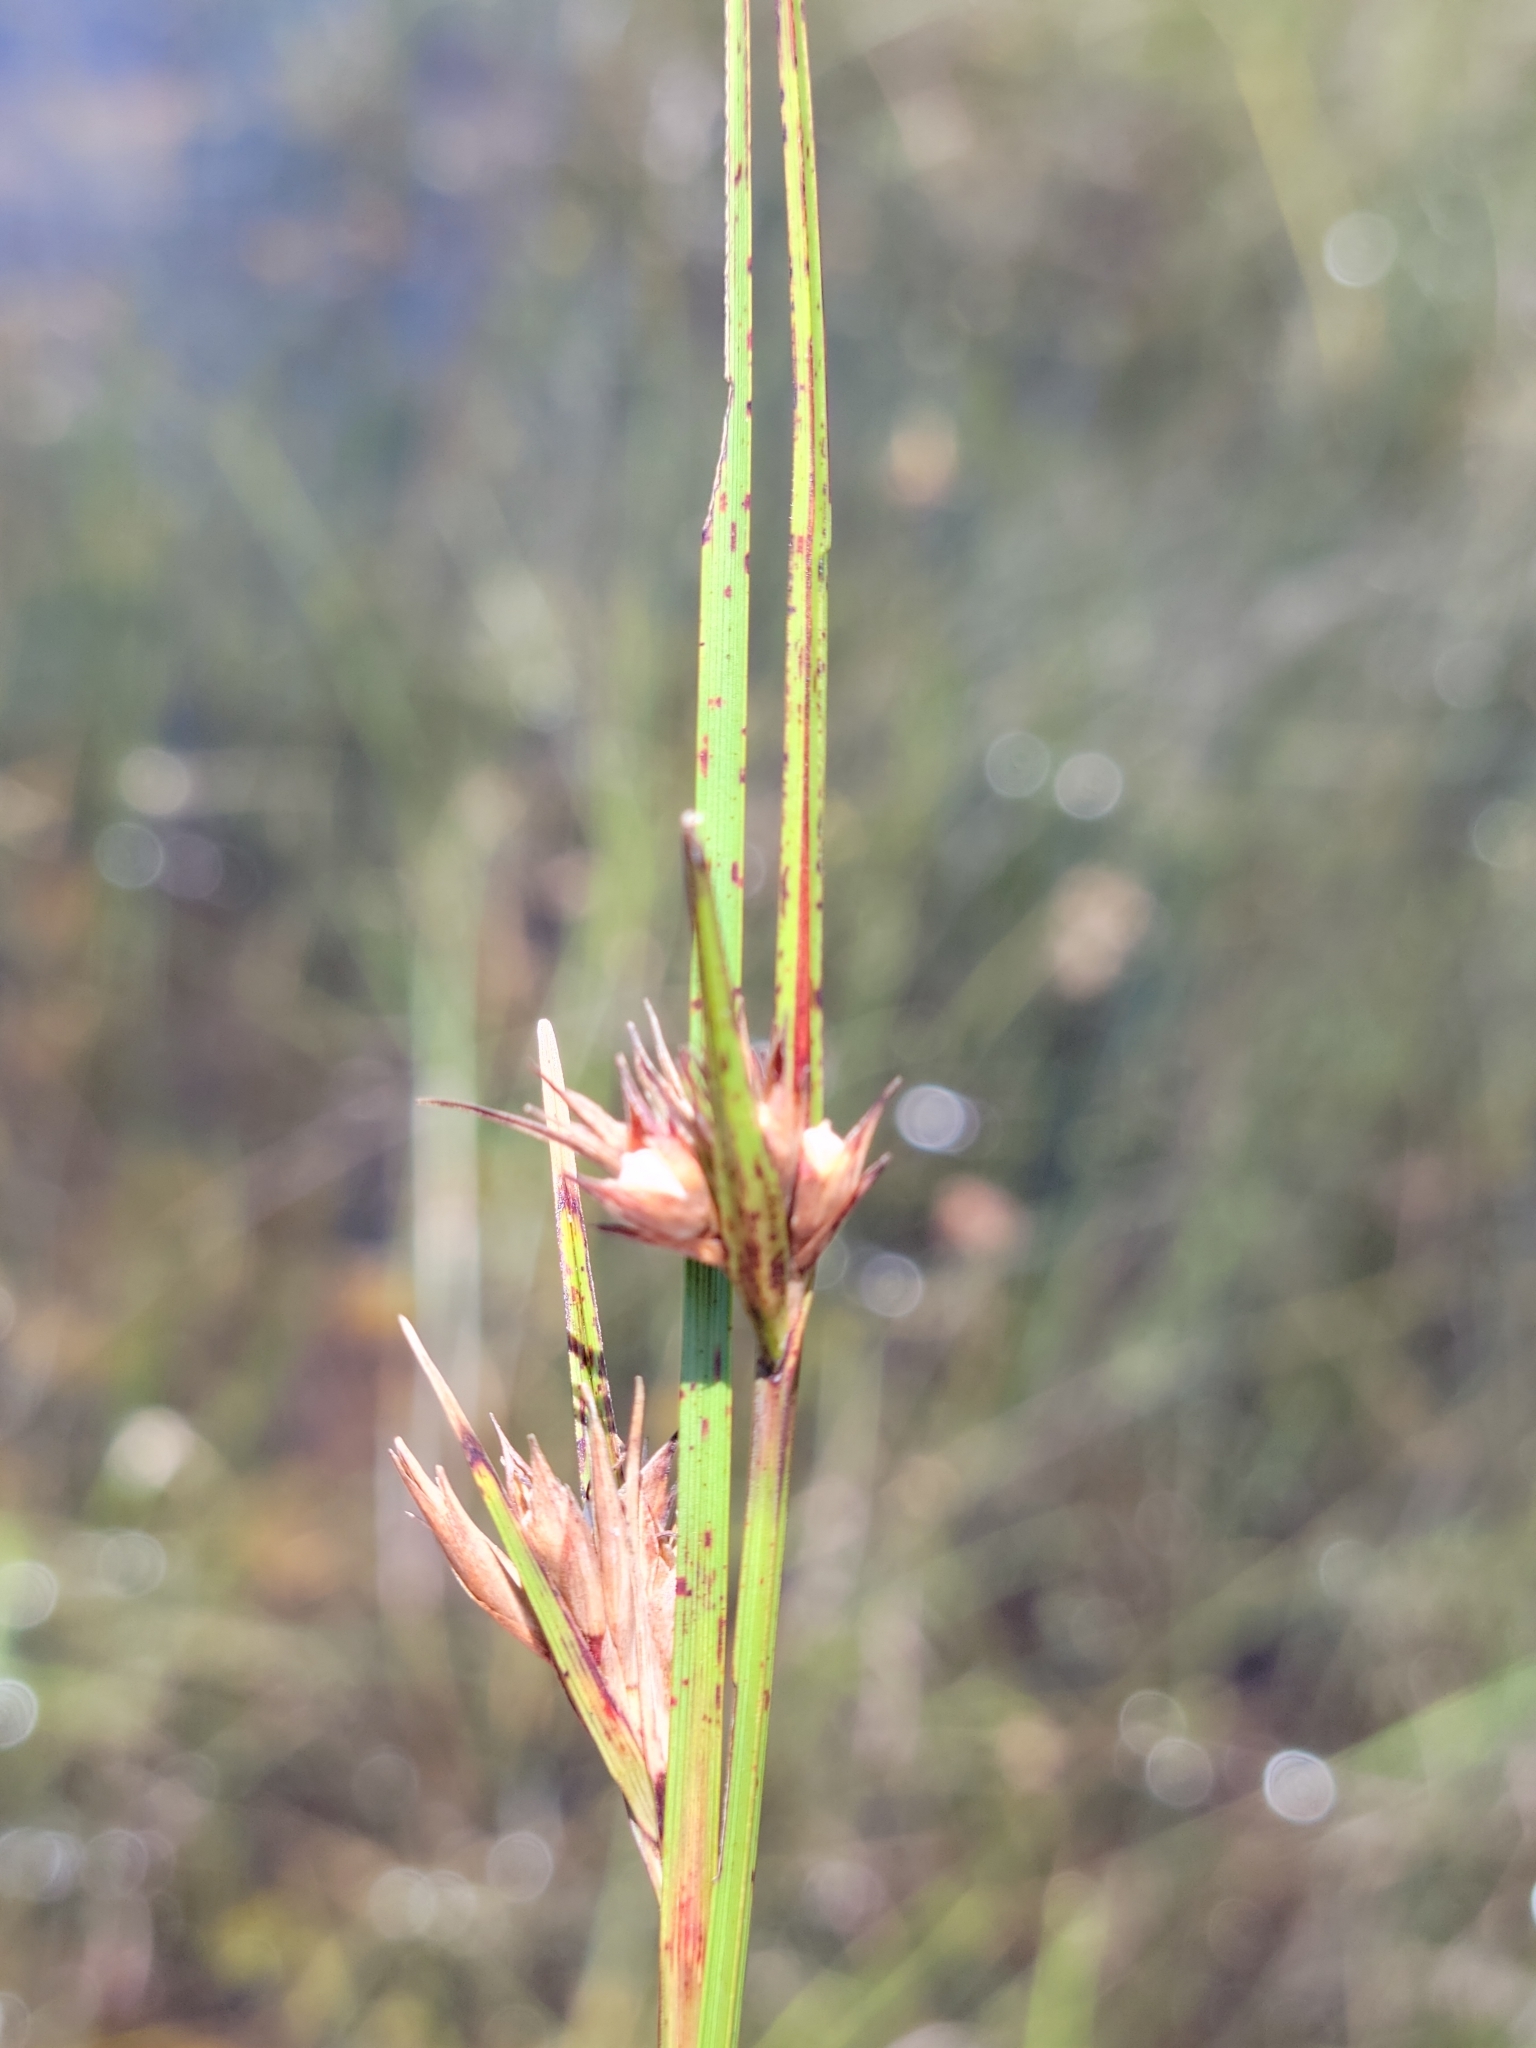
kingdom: Plantae
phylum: Tracheophyta
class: Liliopsida
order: Poales
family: Cyperaceae
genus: Scleria
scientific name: Scleria baldwinii
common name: Baldwin's nutrush
